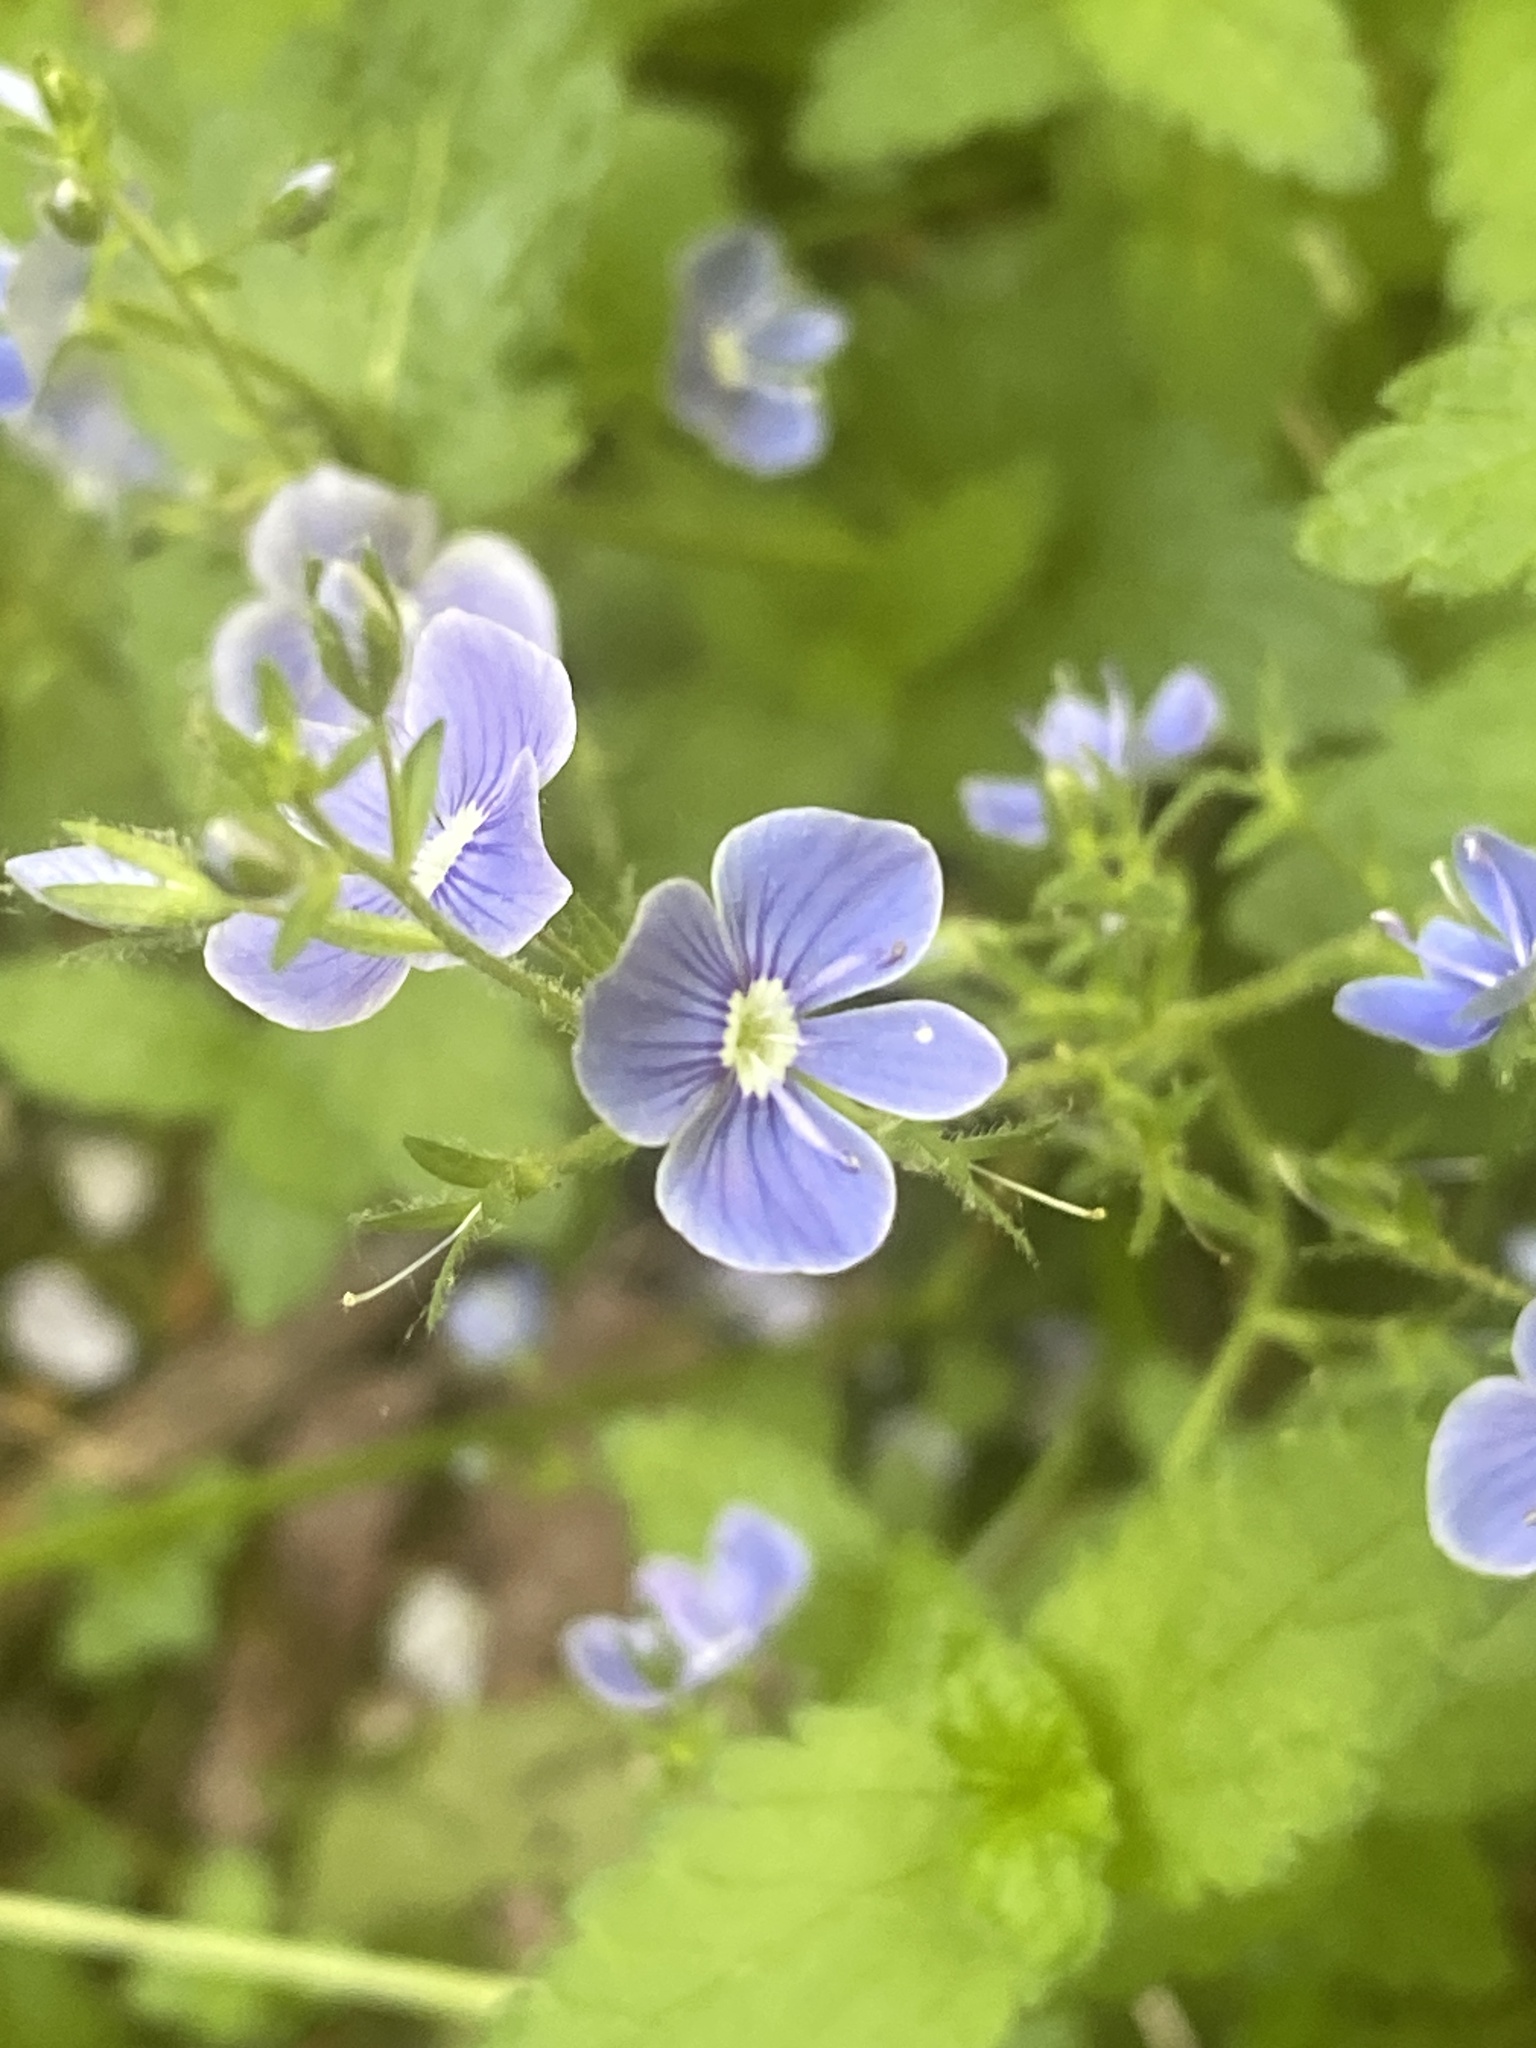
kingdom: Plantae
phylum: Tracheophyta
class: Magnoliopsida
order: Lamiales
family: Plantaginaceae
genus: Veronica
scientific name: Veronica chamaedrys
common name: Germander speedwell
